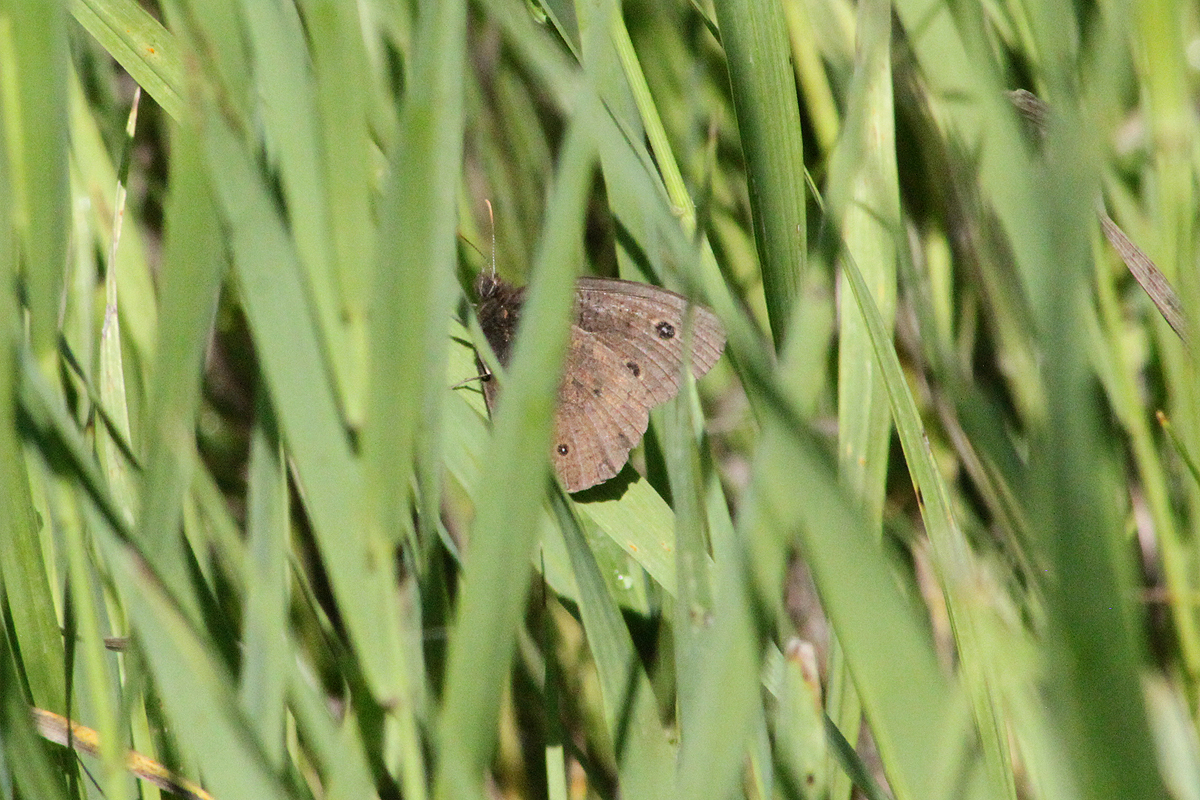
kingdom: Animalia
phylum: Arthropoda
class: Insecta
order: Lepidoptera
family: Nymphalidae
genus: Cercyonis
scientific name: Cercyonis pegala
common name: Common wood-nymph
